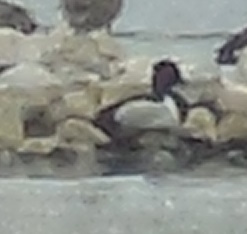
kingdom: Animalia
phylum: Chordata
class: Aves
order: Anseriformes
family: Anatidae
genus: Aythya
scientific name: Aythya collaris
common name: Ring-necked duck
